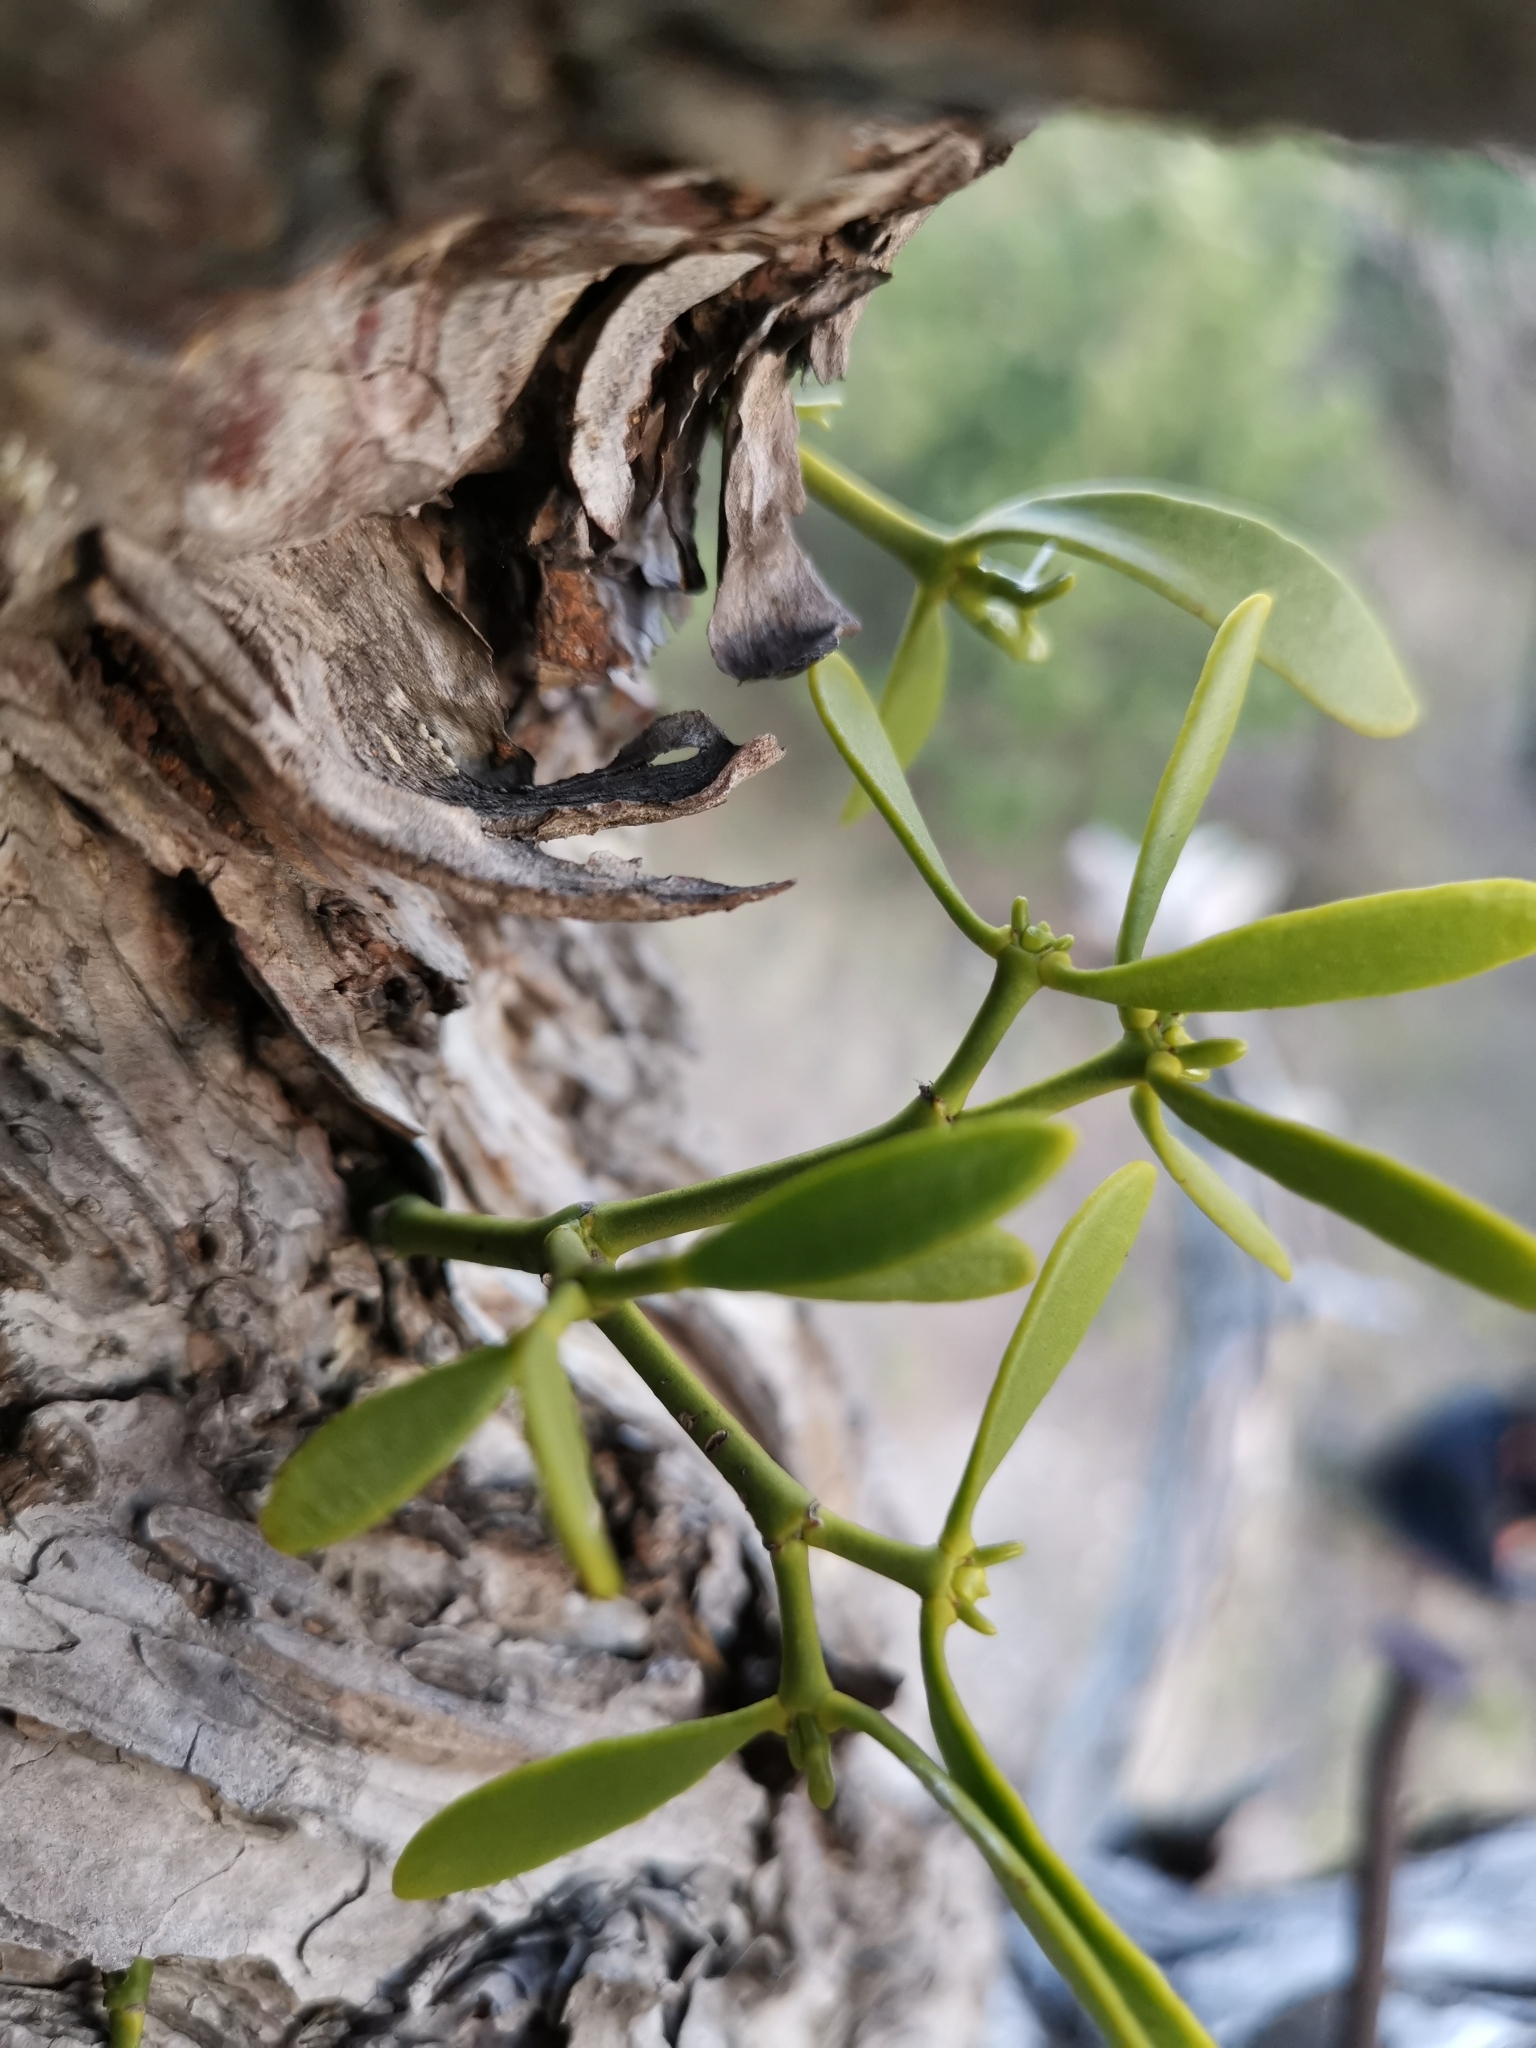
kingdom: Plantae
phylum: Tracheophyta
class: Magnoliopsida
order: Santalales
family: Viscaceae
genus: Viscum
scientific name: Viscum album
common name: Mistletoe
